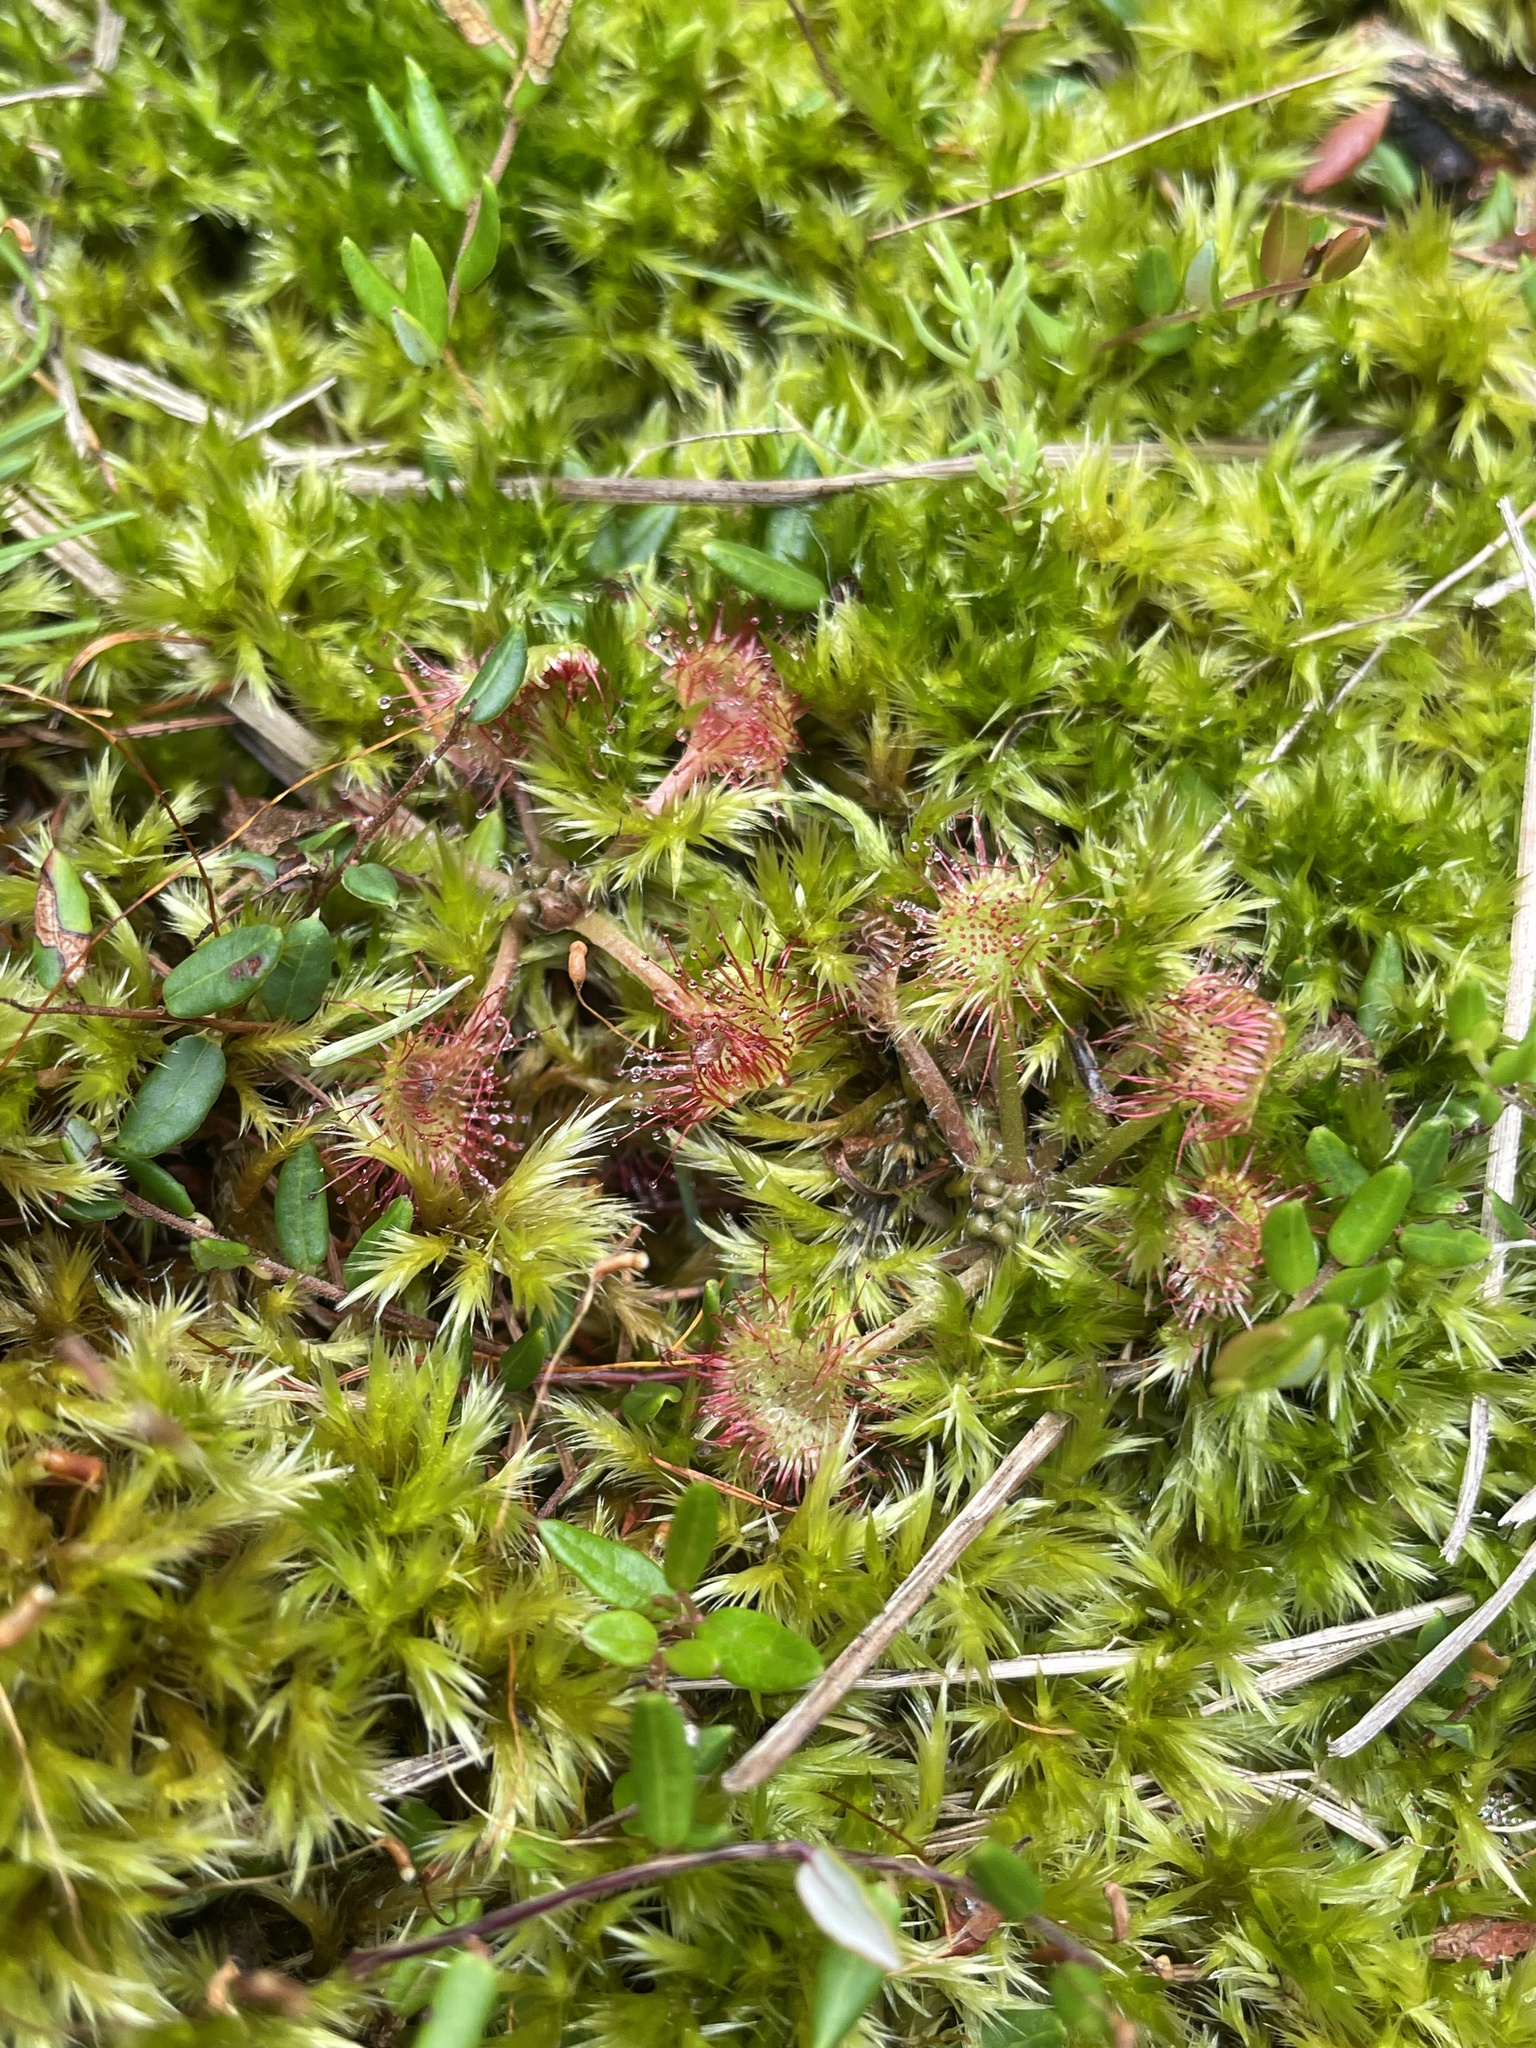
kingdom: Plantae
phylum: Tracheophyta
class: Magnoliopsida
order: Caryophyllales
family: Droseraceae
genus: Drosera
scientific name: Drosera rotundifolia
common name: Round-leaved sundew
